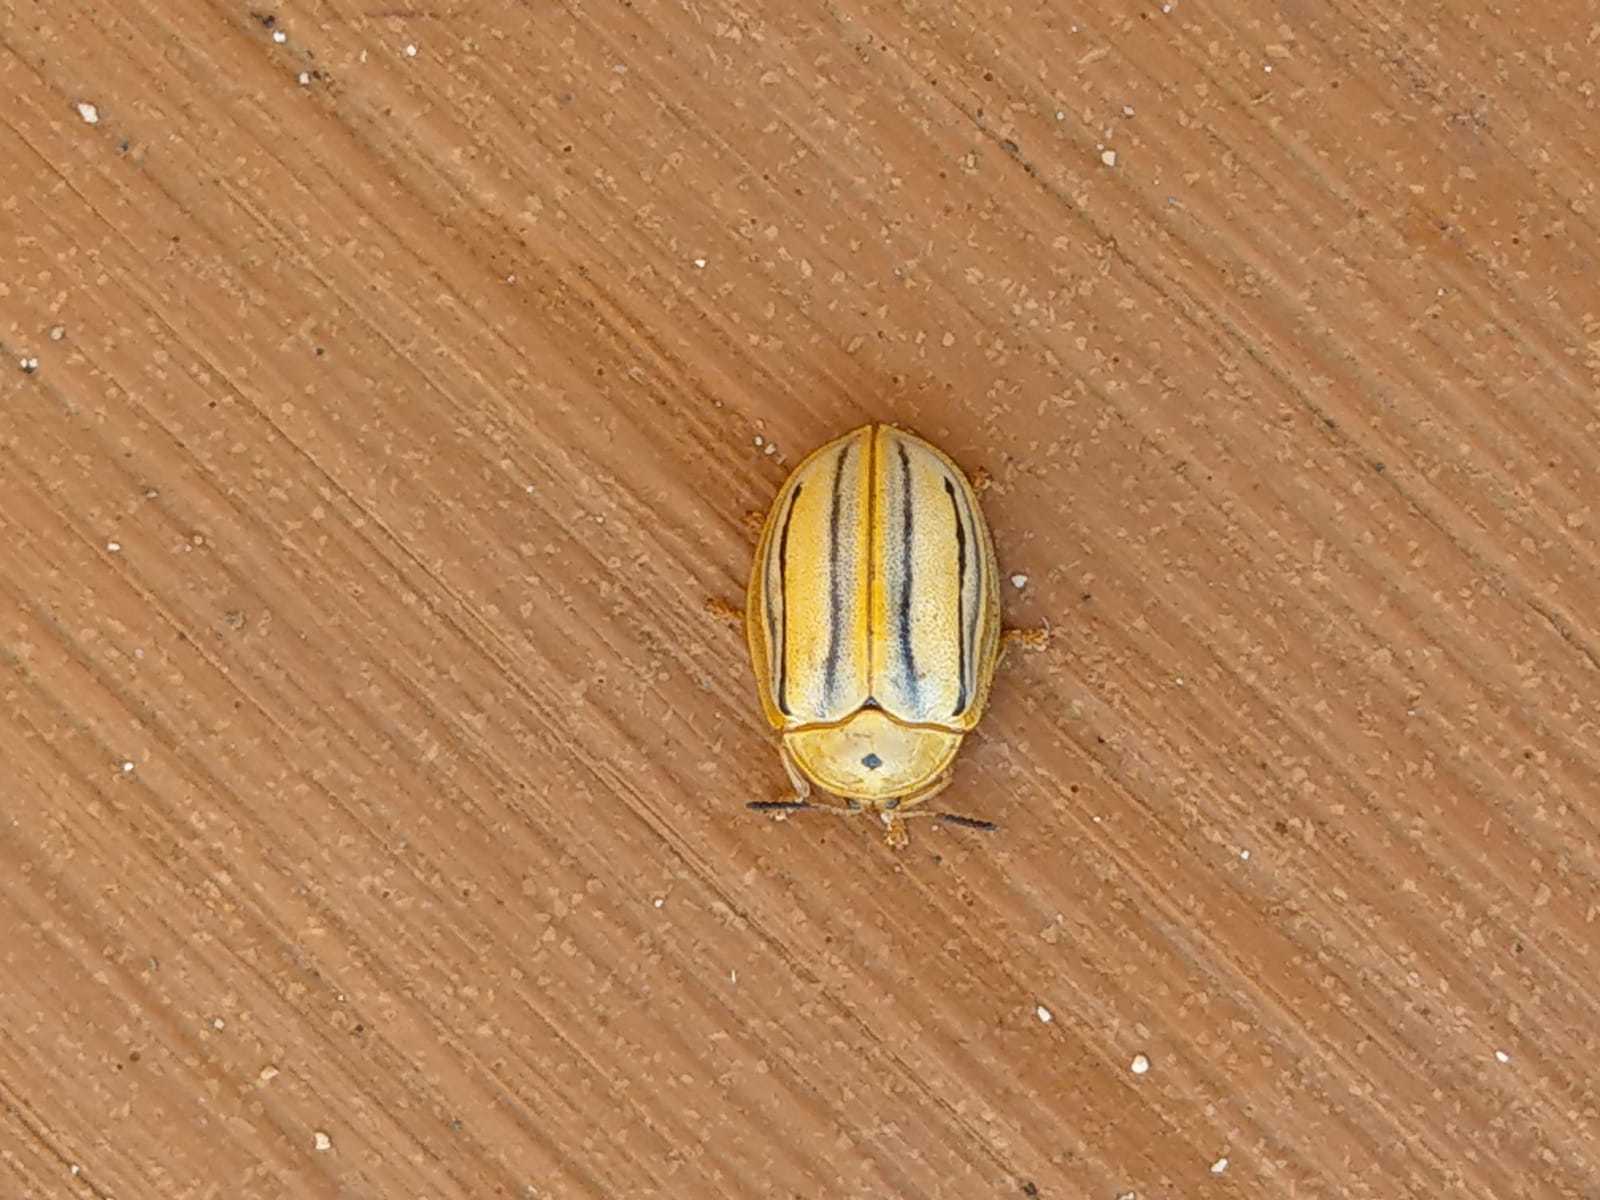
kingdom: Animalia
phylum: Arthropoda
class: Insecta
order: Coleoptera
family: Chrysomelidae
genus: Hilarocassis
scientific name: Hilarocassis exclamationis
